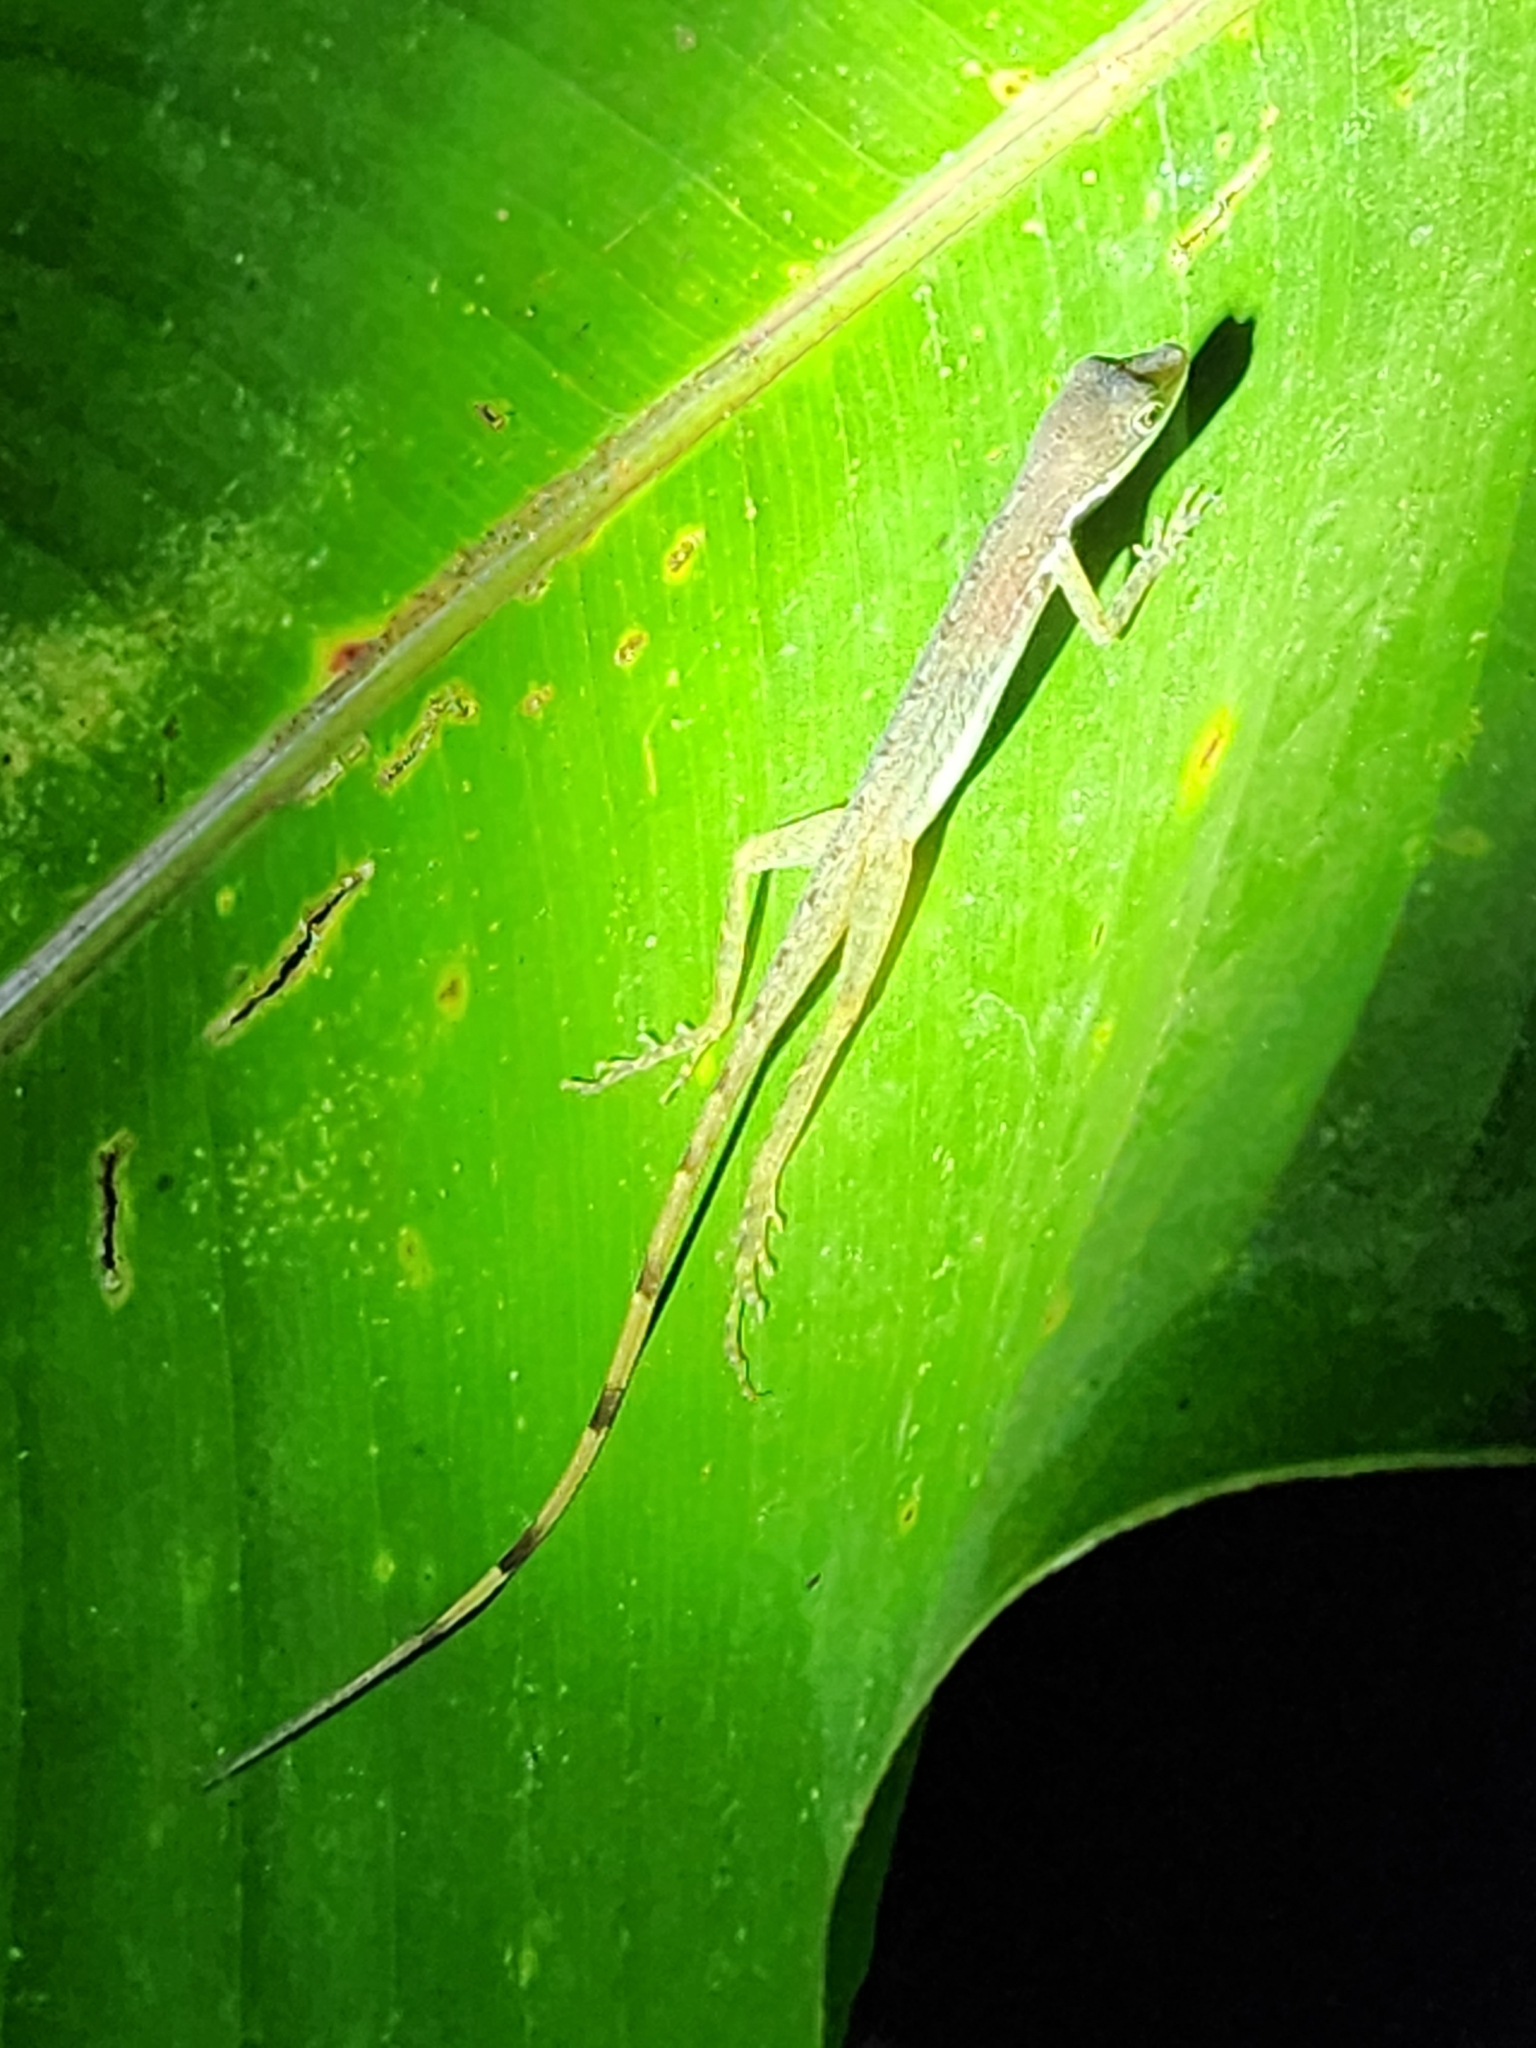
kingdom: Animalia
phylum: Chordata
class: Squamata
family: Dactyloidae
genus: Anolis
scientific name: Anolis limifrons
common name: Border anole
